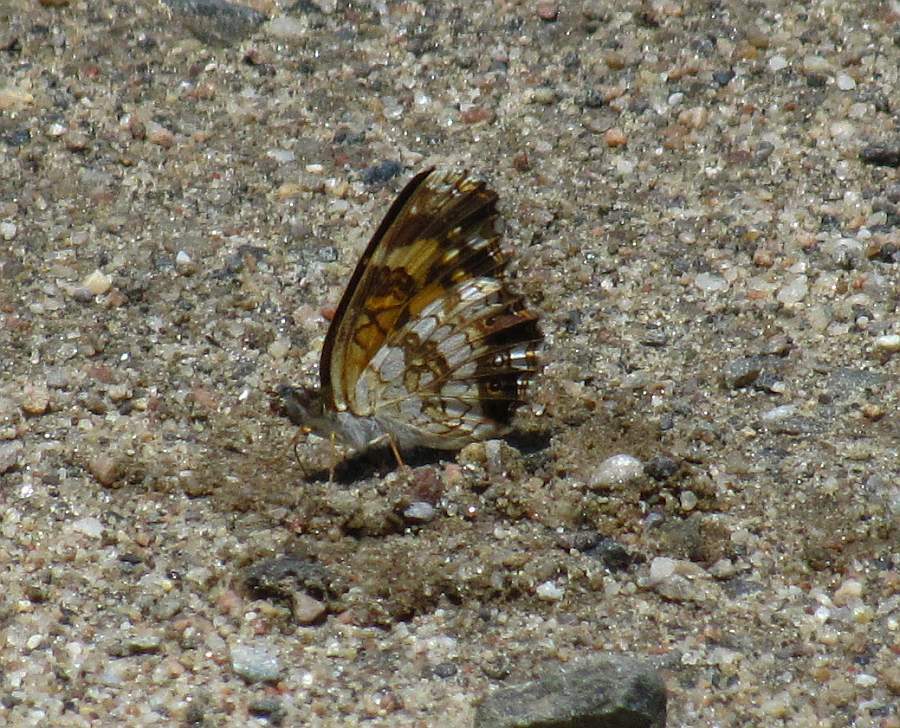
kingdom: Animalia
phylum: Arthropoda
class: Insecta
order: Lepidoptera
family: Nymphalidae
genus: Chlosyne
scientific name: Chlosyne nycteis
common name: Silvery checkerspot
